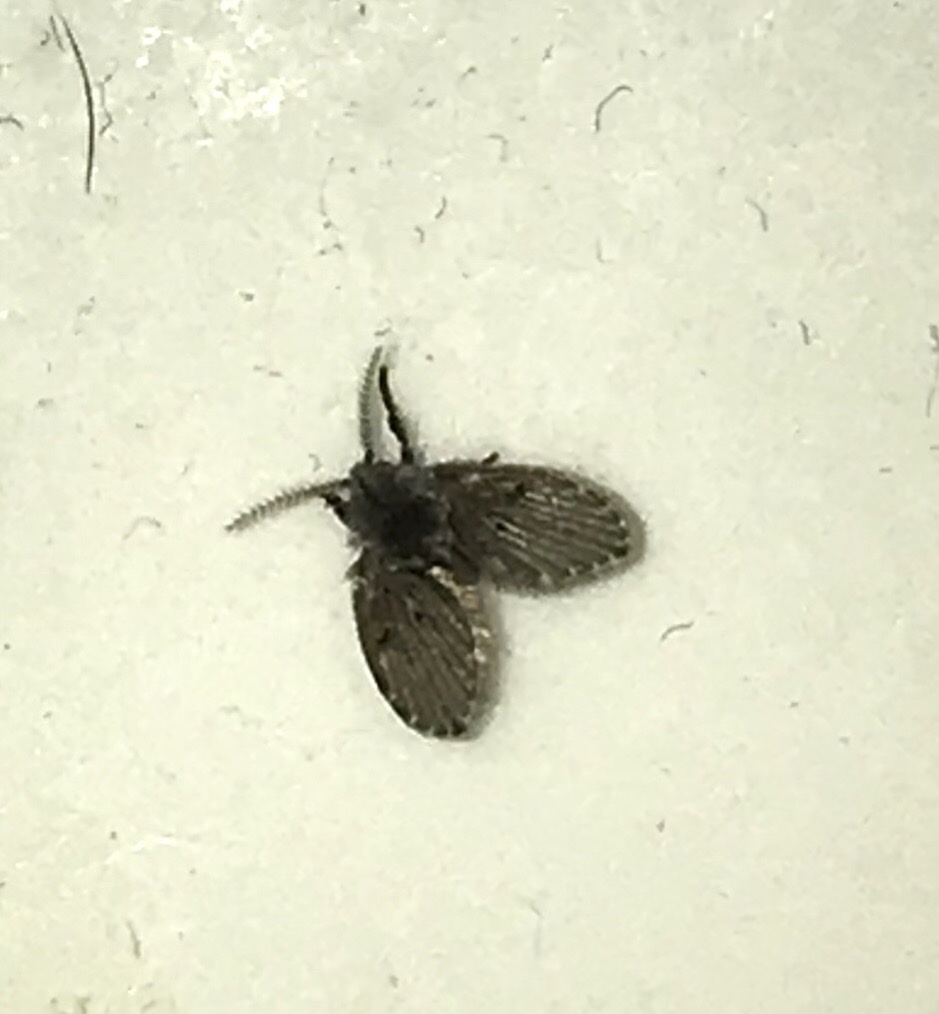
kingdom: Animalia
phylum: Arthropoda
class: Insecta
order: Diptera
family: Psychodidae
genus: Clogmia
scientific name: Clogmia albipunctatus
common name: White-spotted moth fly
